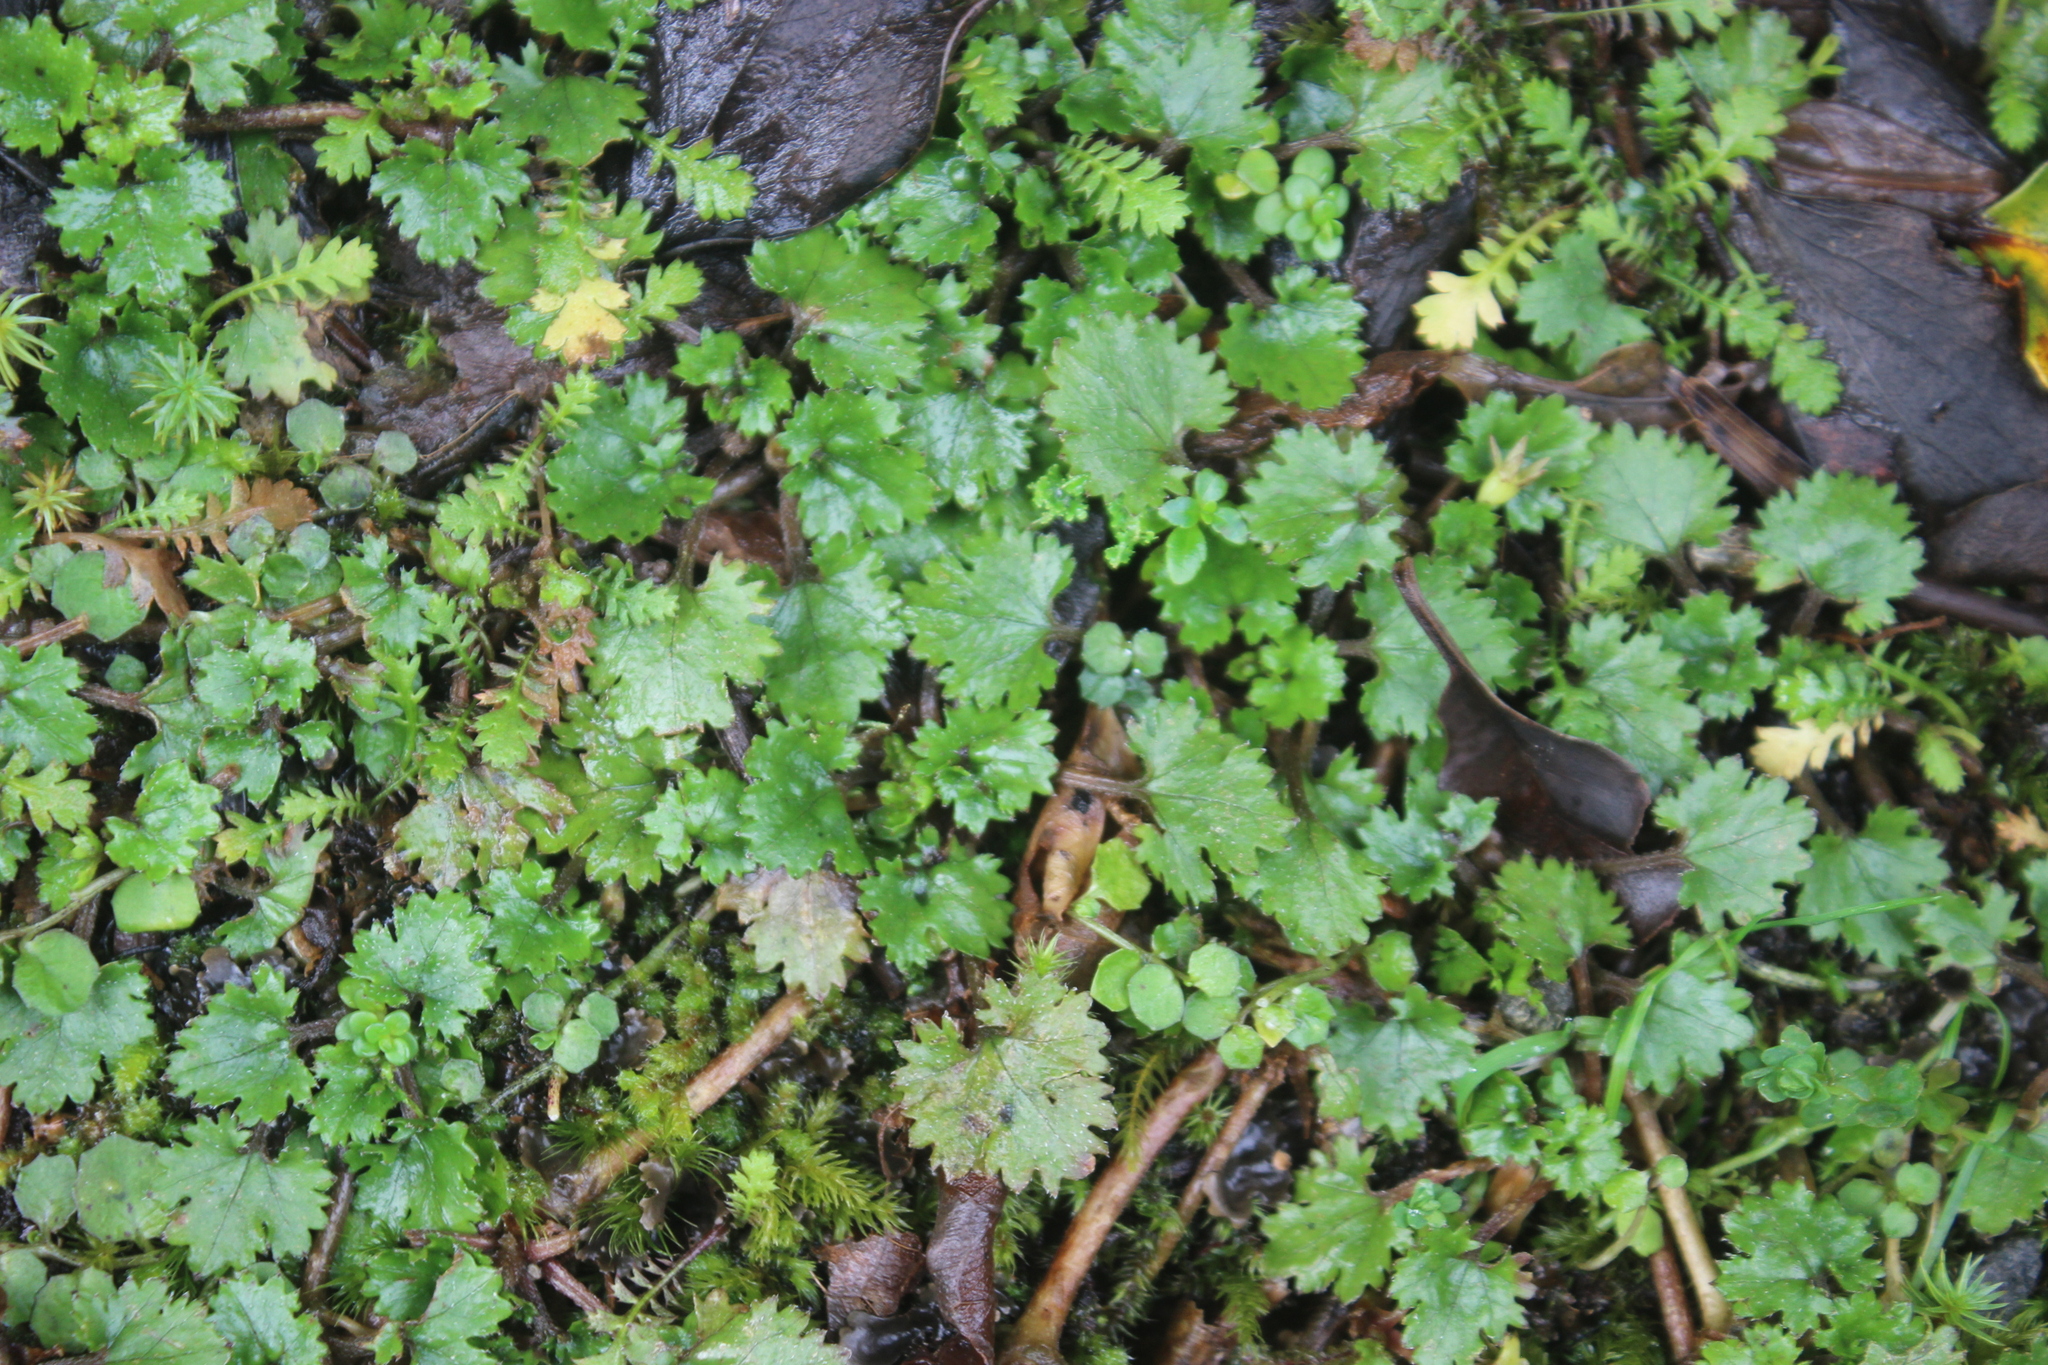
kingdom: Plantae
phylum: Tracheophyta
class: Magnoliopsida
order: Gunnerales
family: Gunneraceae
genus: Gunnera
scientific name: Gunnera monoica
